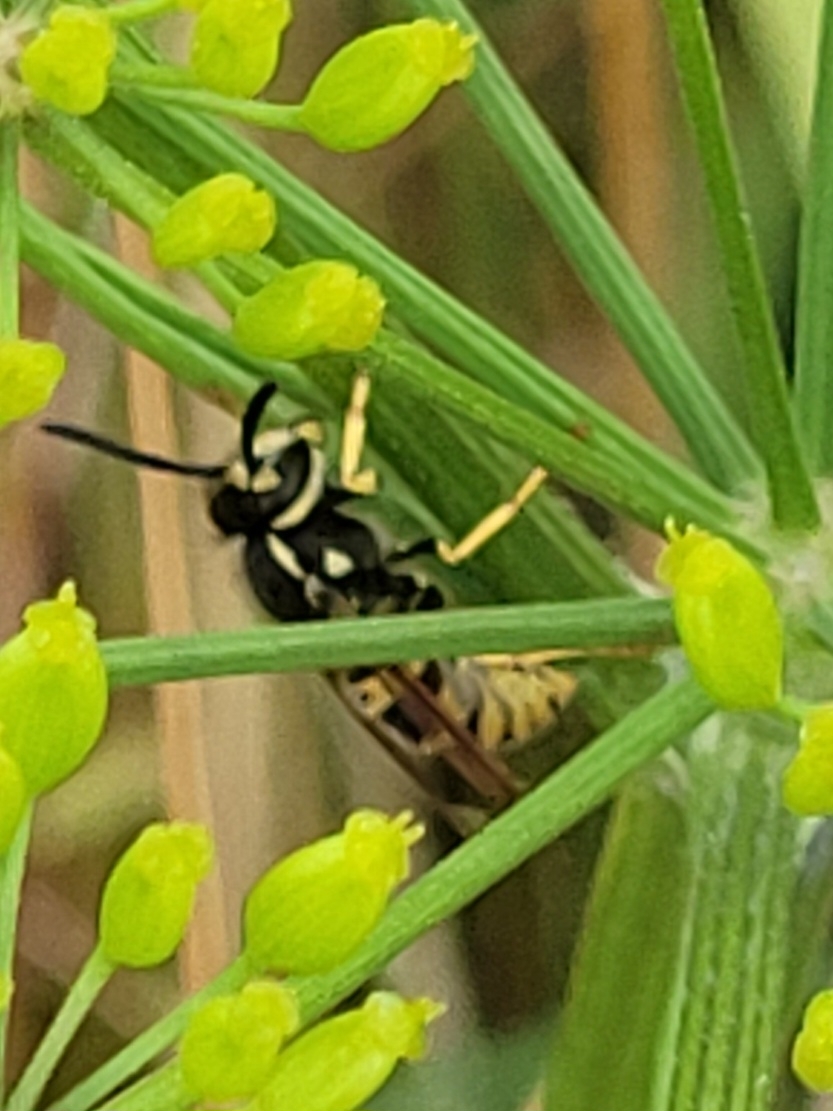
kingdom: Animalia
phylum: Arthropoda
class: Insecta
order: Hymenoptera
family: Vespidae
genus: Vespula
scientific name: Vespula germanica
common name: German wasp
